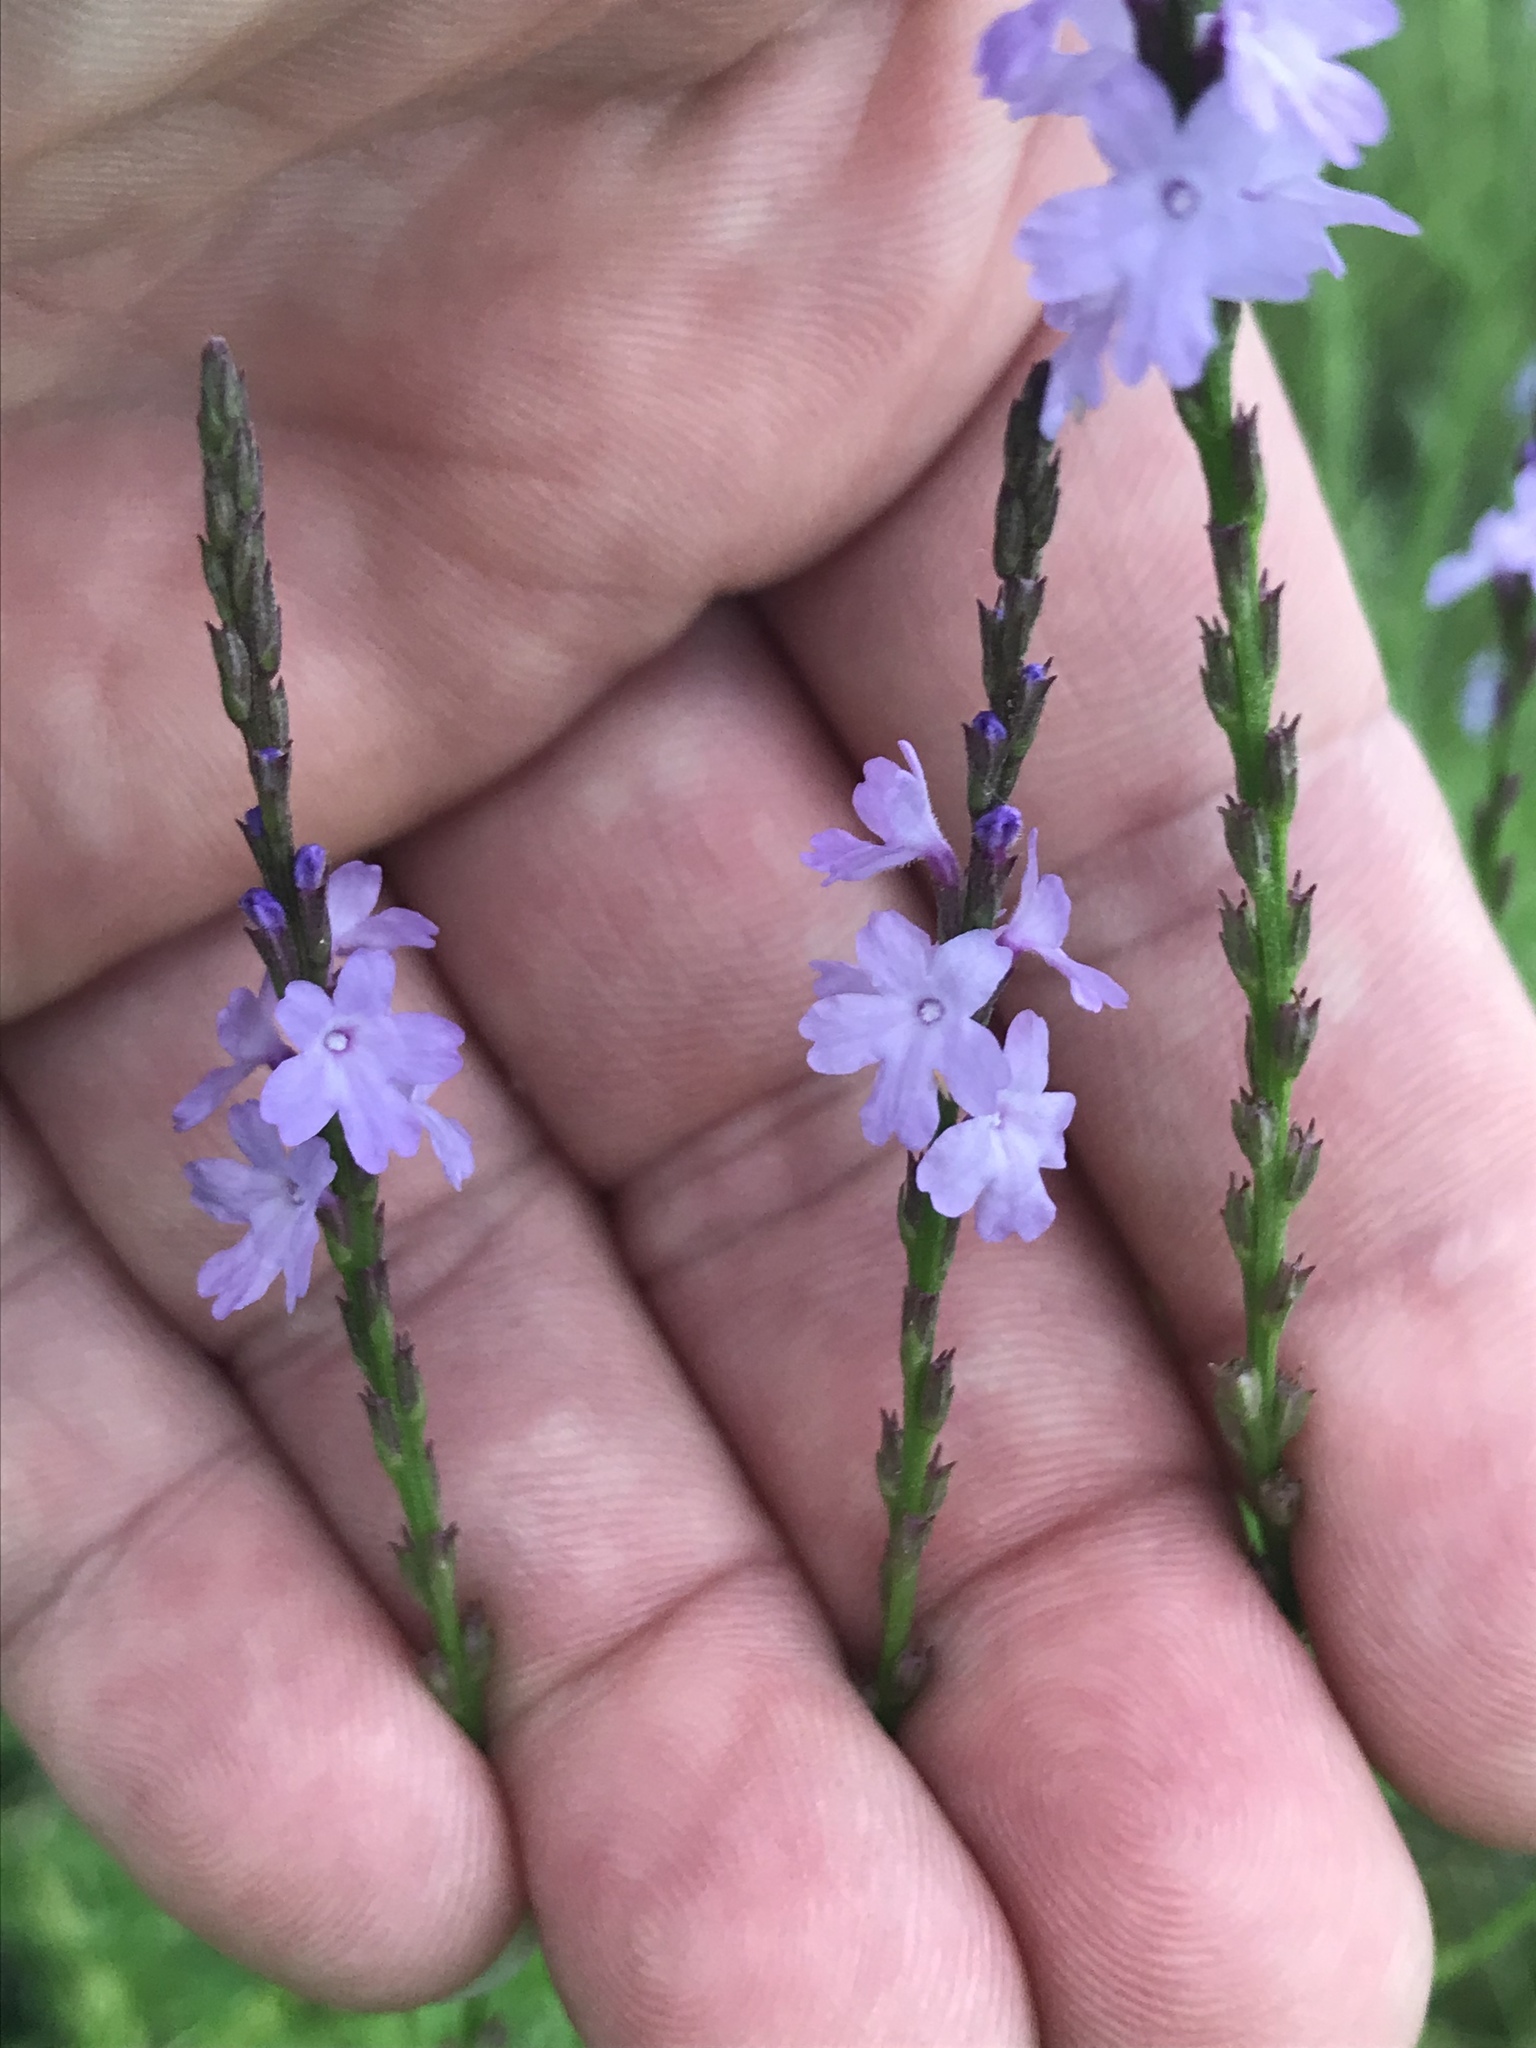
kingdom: Plantae
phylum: Tracheophyta
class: Magnoliopsida
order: Lamiales
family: Verbenaceae
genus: Verbena
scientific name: Verbena halei
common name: Texas vervain
